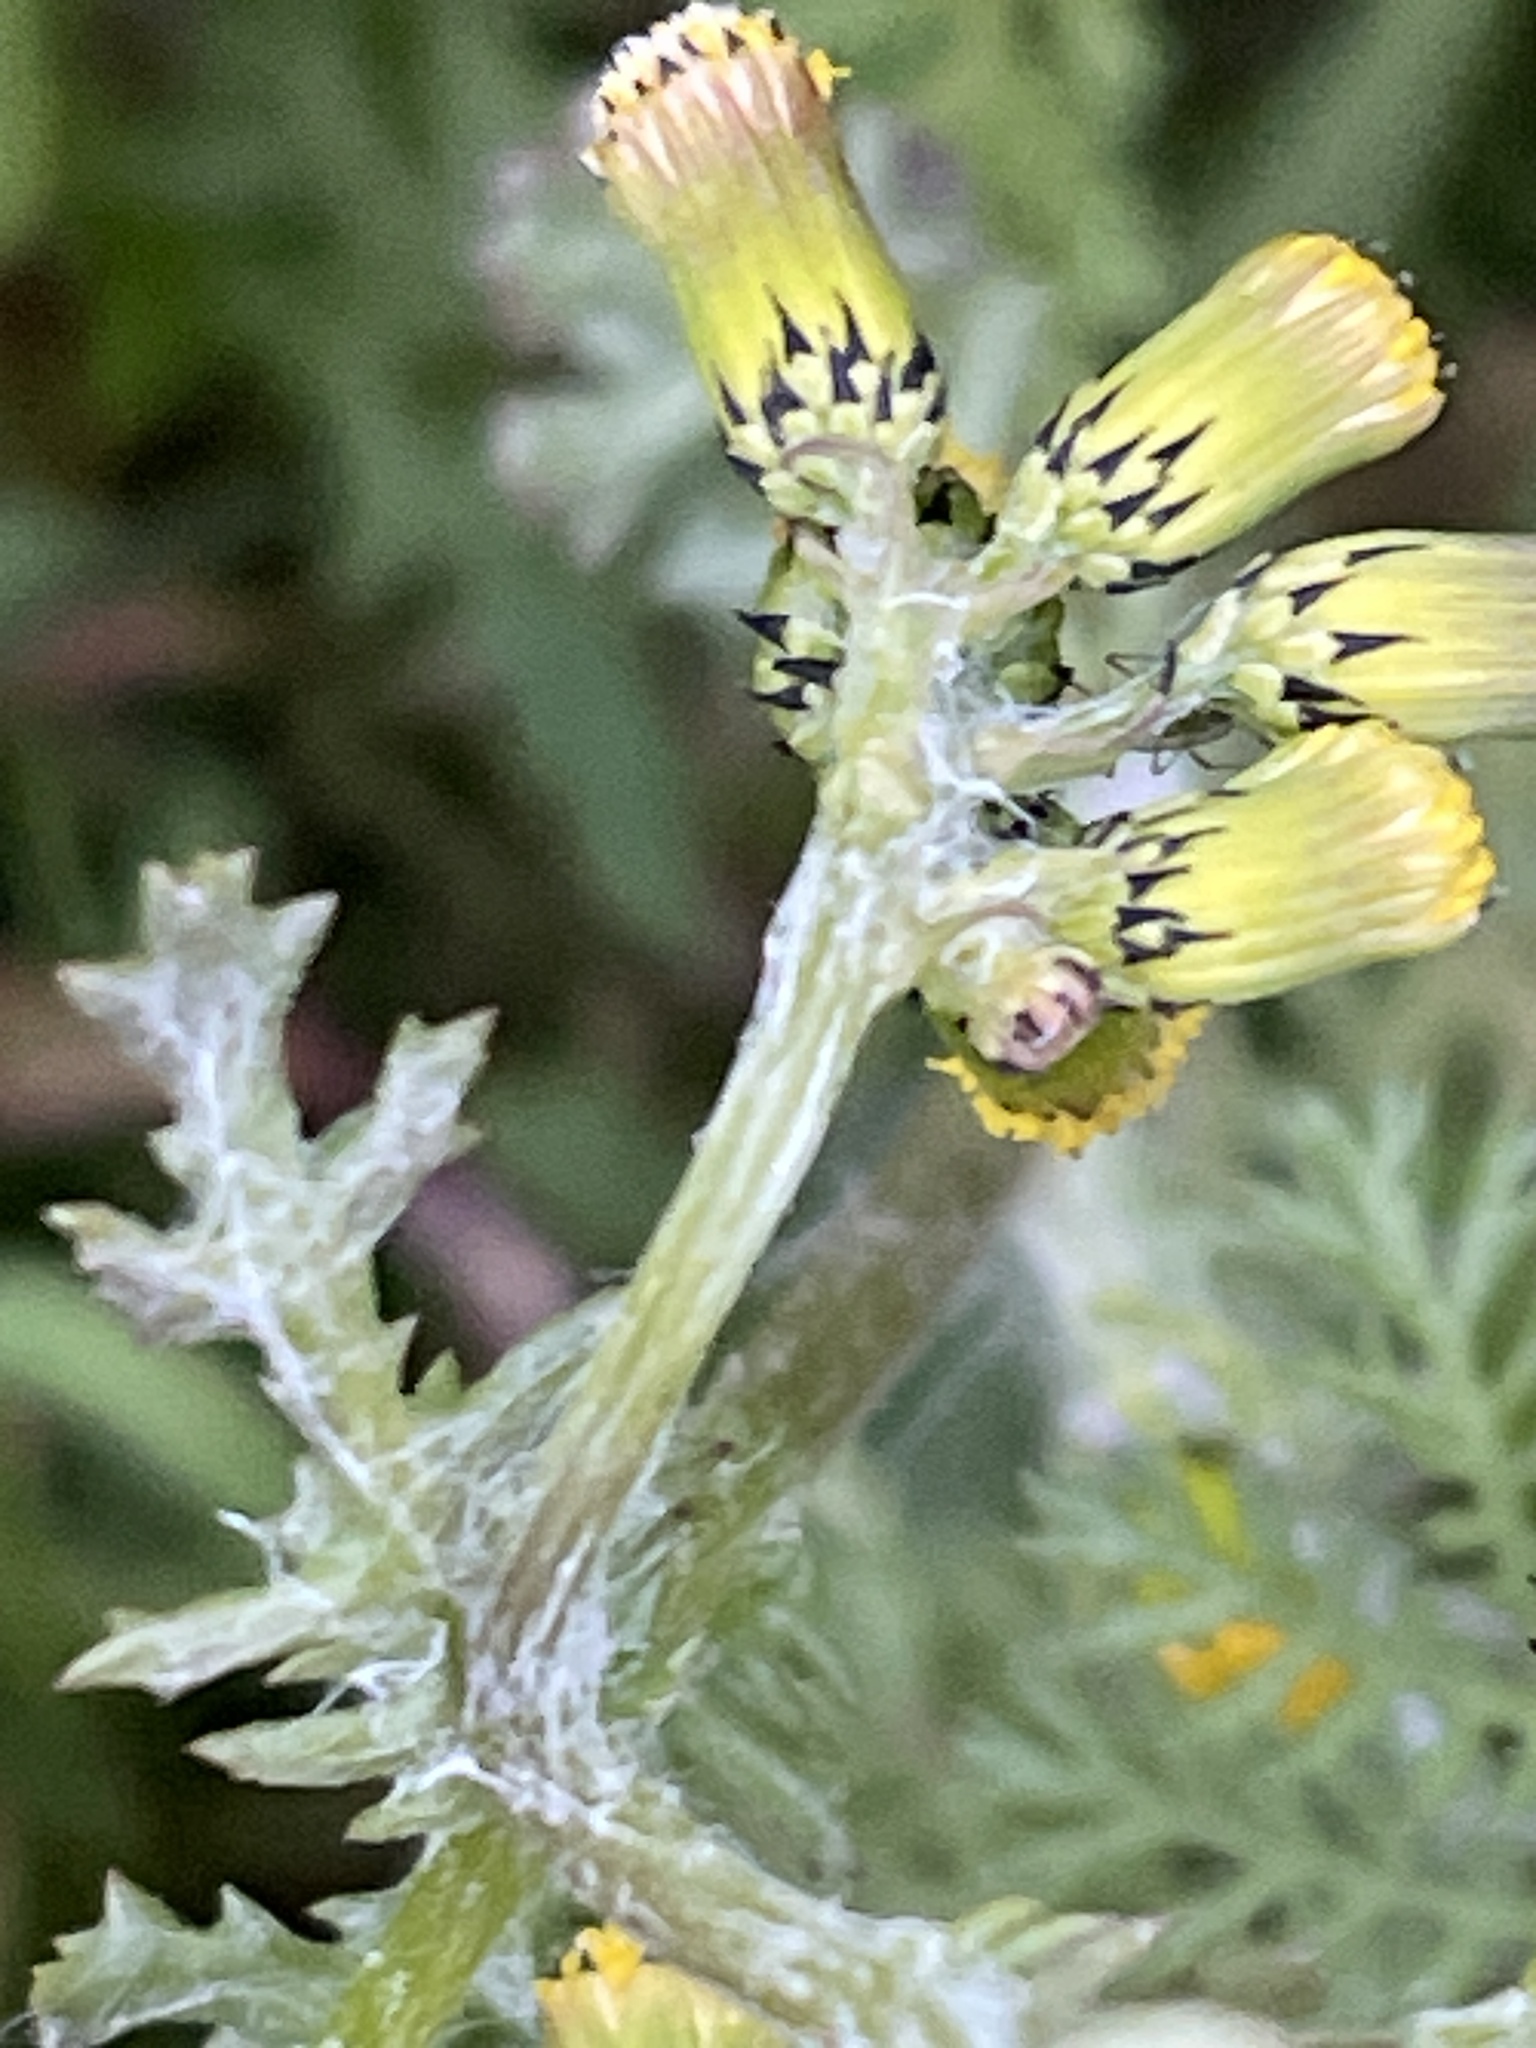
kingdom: Plantae
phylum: Tracheophyta
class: Magnoliopsida
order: Asterales
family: Asteraceae
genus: Senecio
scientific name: Senecio vulgaris
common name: Old-man-in-the-spring
